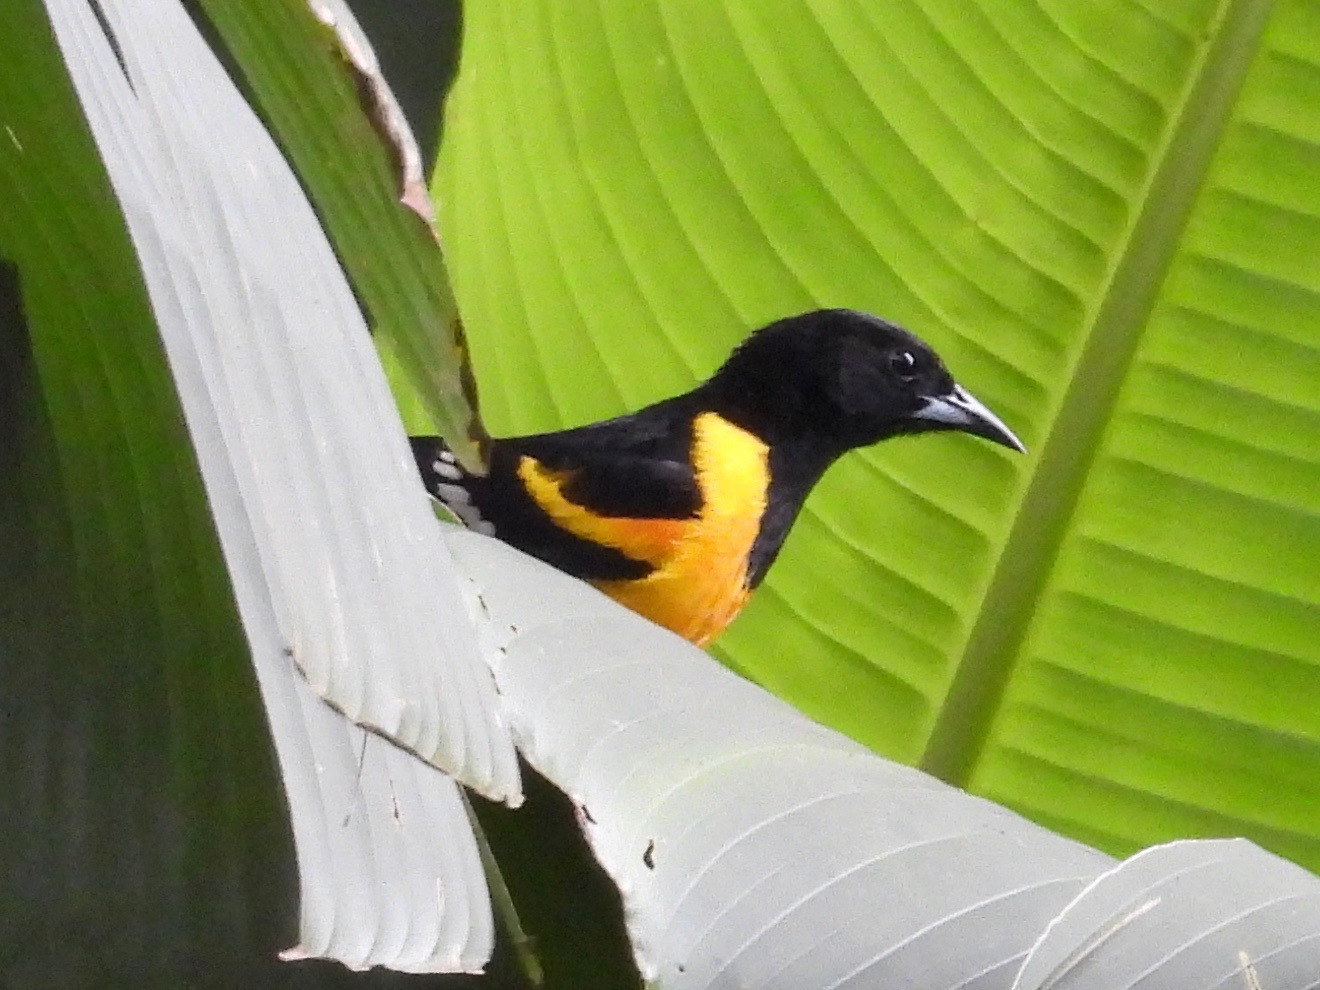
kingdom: Animalia
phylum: Chordata
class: Aves
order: Passeriformes
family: Icteridae
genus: Icterus
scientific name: Icterus maculialatus
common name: Bar-winged oriole
